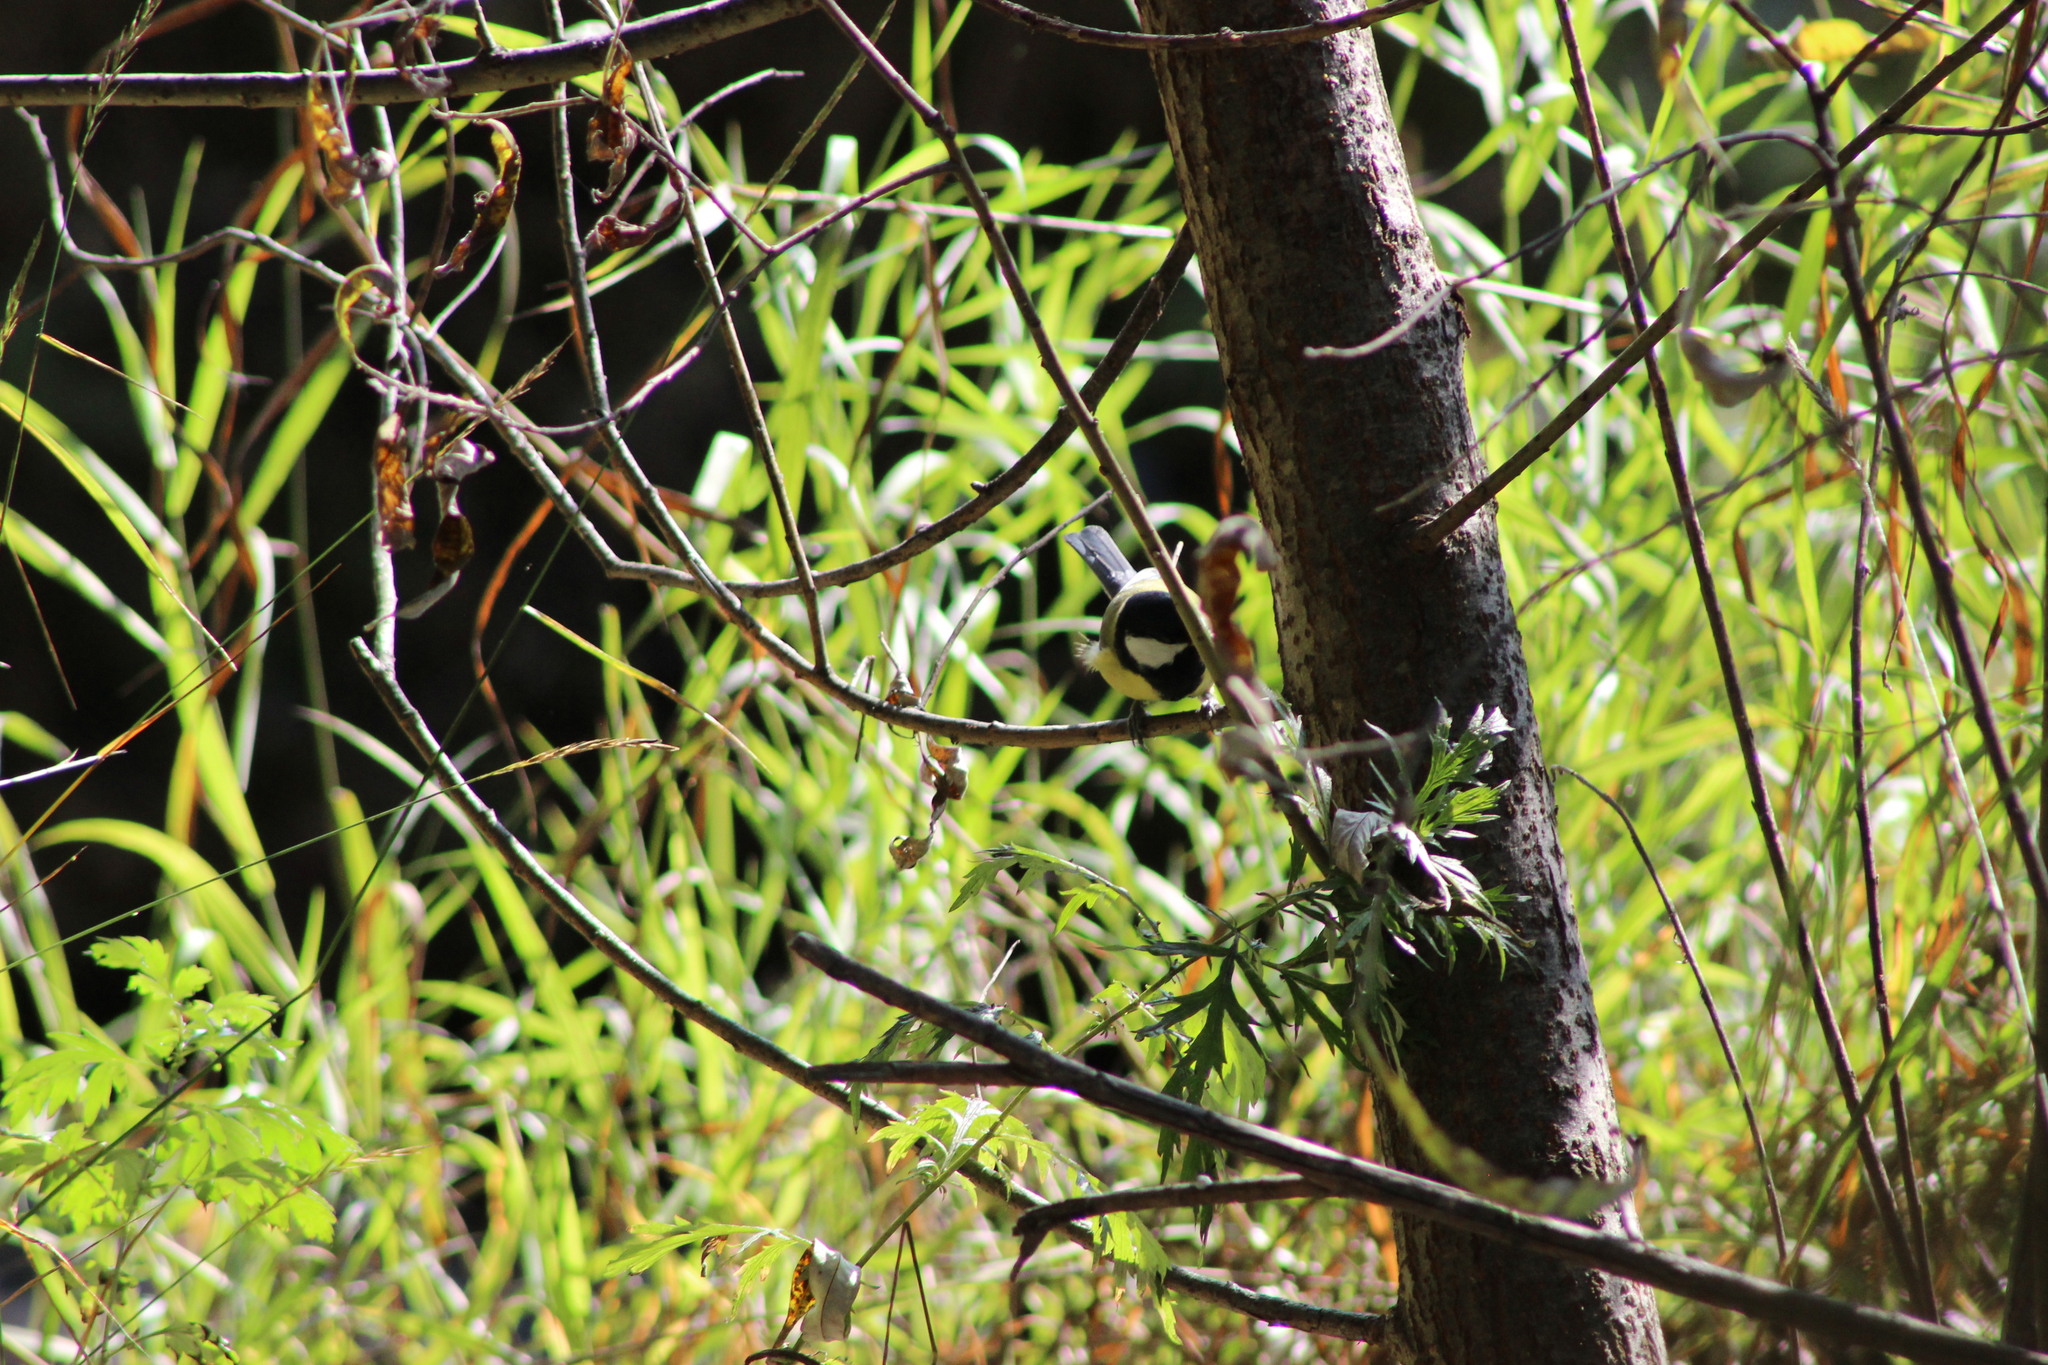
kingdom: Animalia
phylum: Chordata
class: Aves
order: Passeriformes
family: Paridae
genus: Parus
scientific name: Parus major
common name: Great tit
